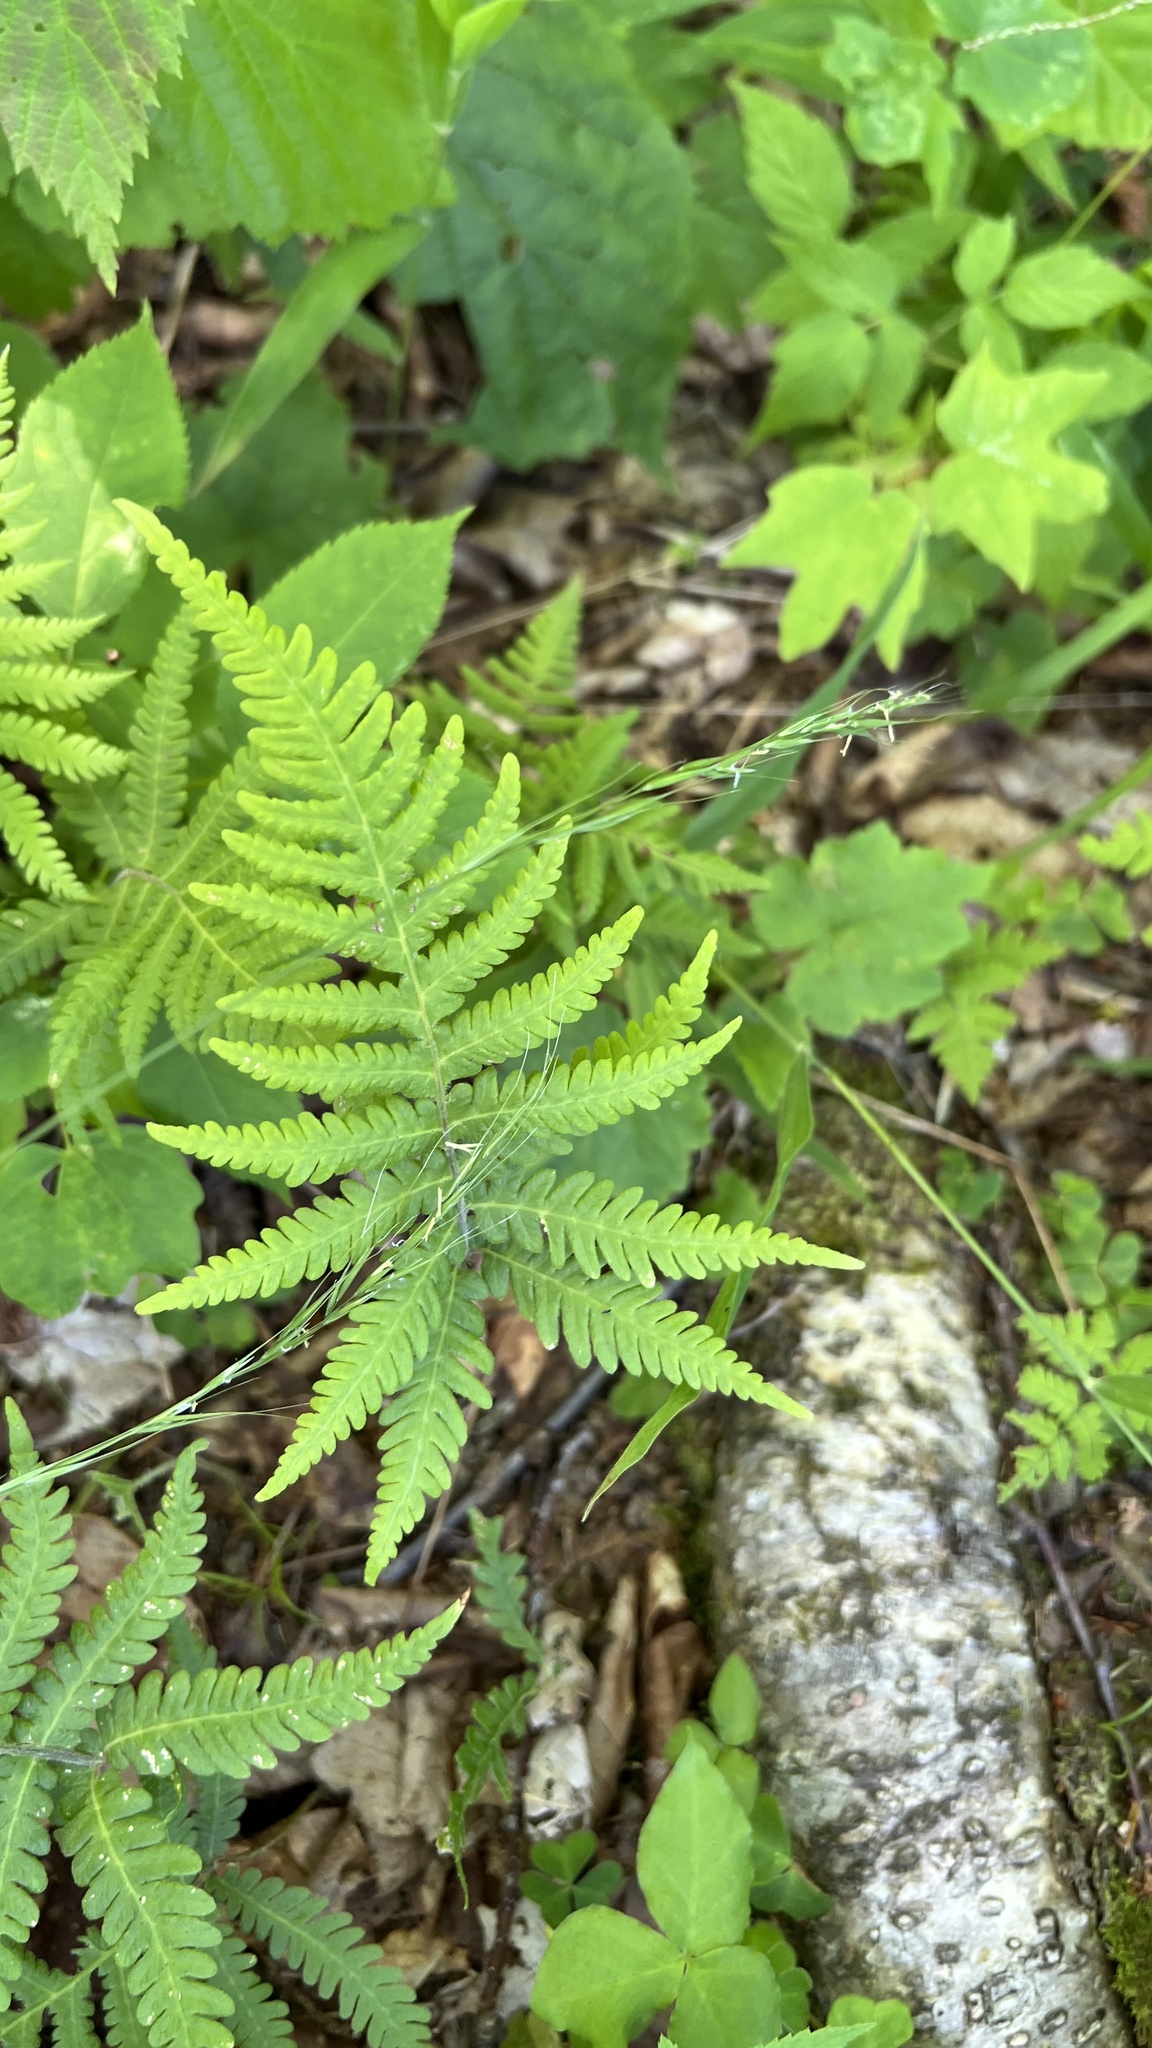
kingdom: Plantae
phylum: Tracheophyta
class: Polypodiopsida
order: Polypodiales
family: Thelypteridaceae
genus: Phegopteris
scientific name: Phegopteris connectilis
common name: Beech fern
